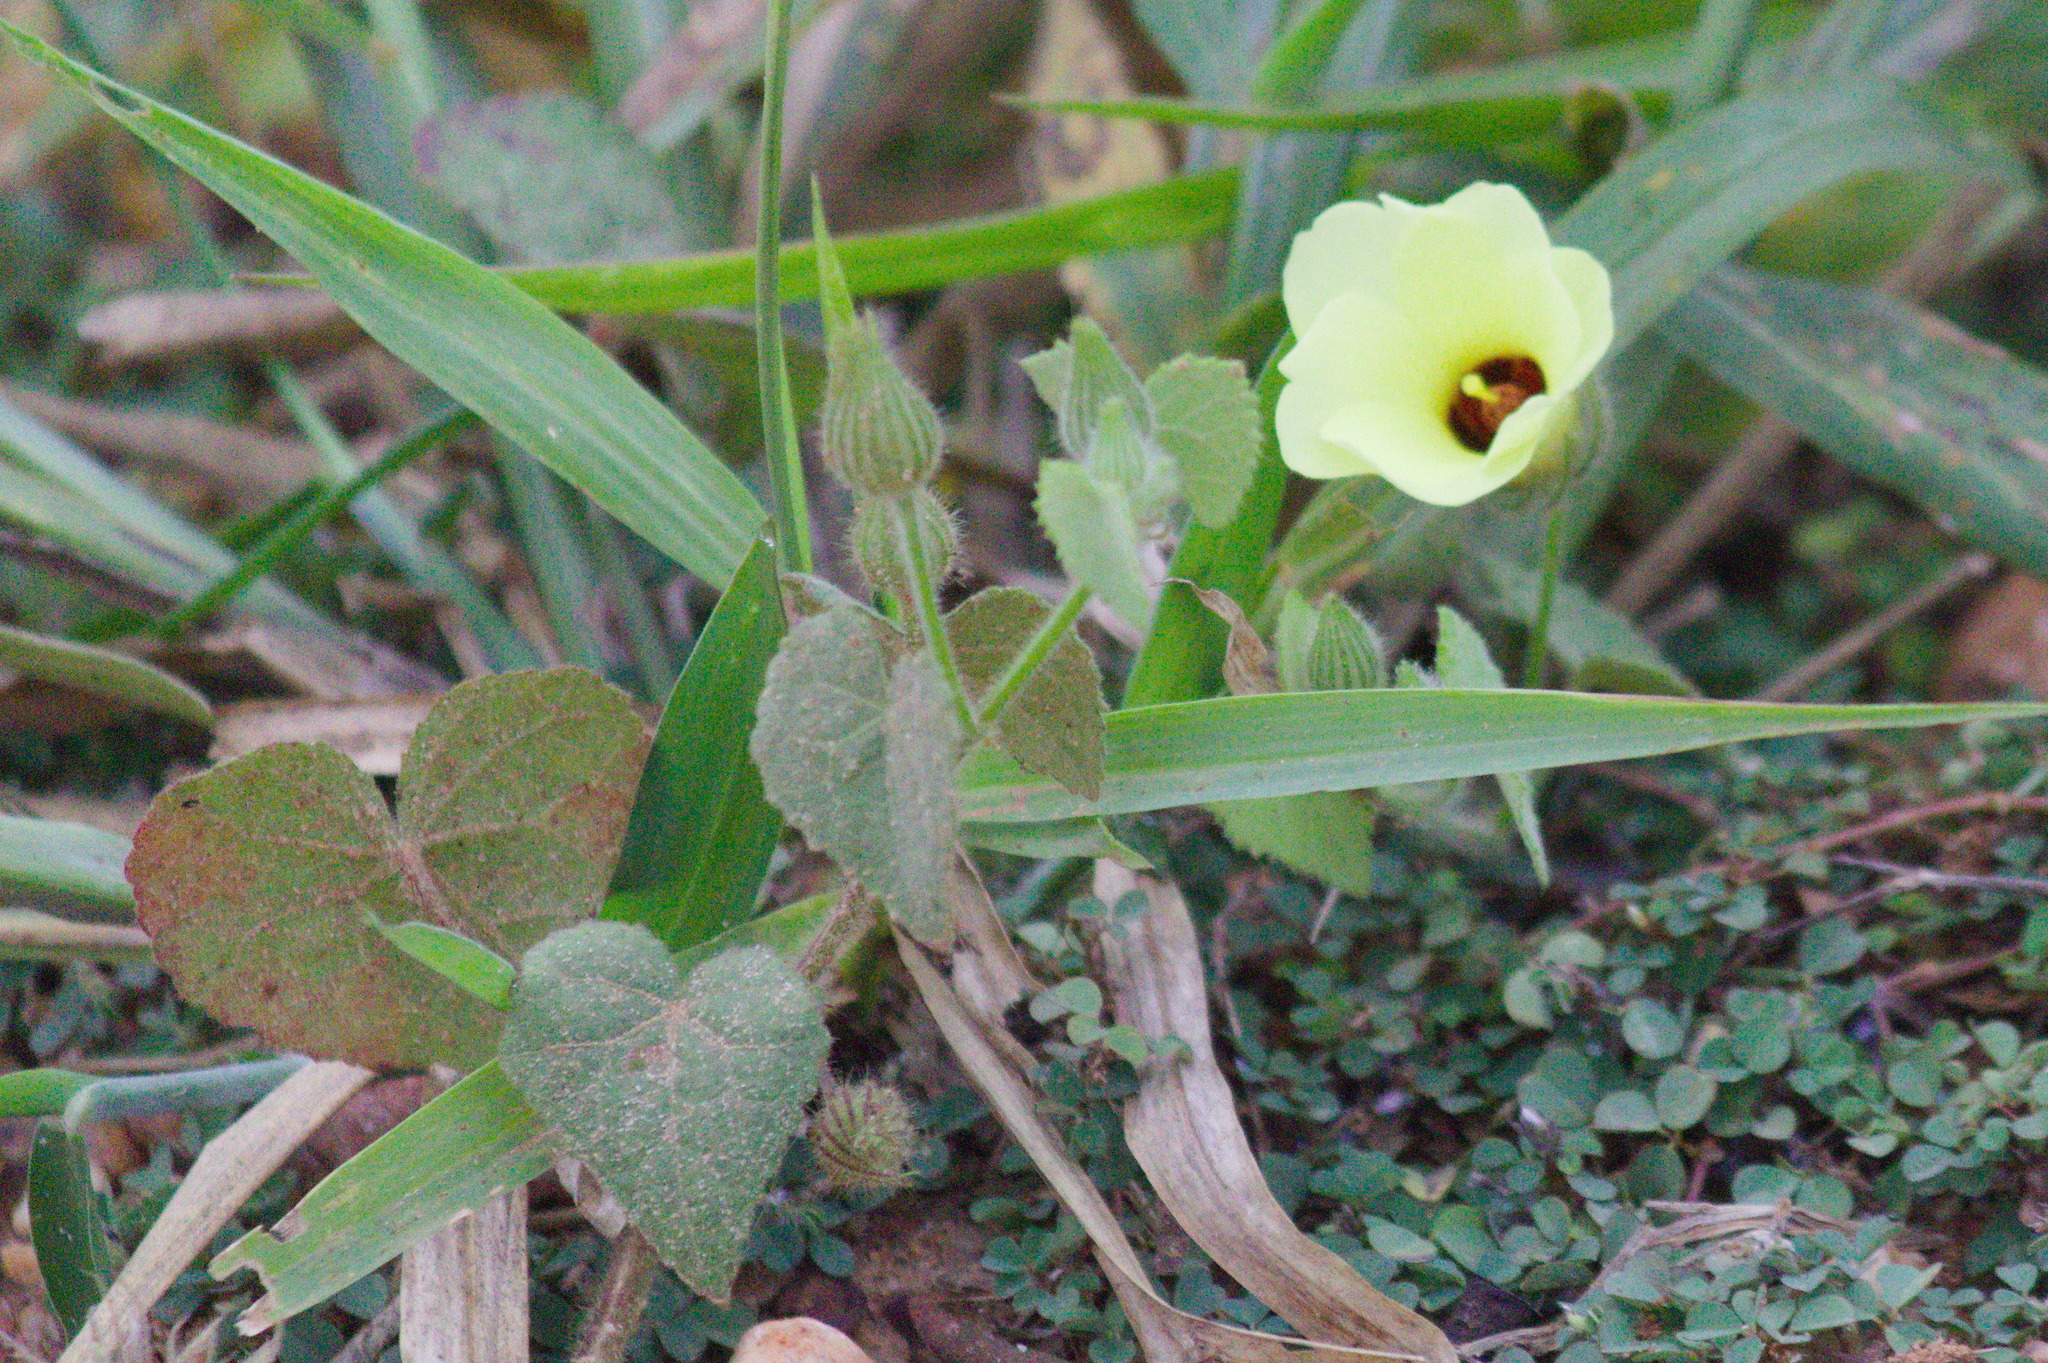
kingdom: Plantae
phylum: Tracheophyta
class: Magnoliopsida
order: Malvales
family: Malvaceae
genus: Pavonia
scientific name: Pavonia cancellata
